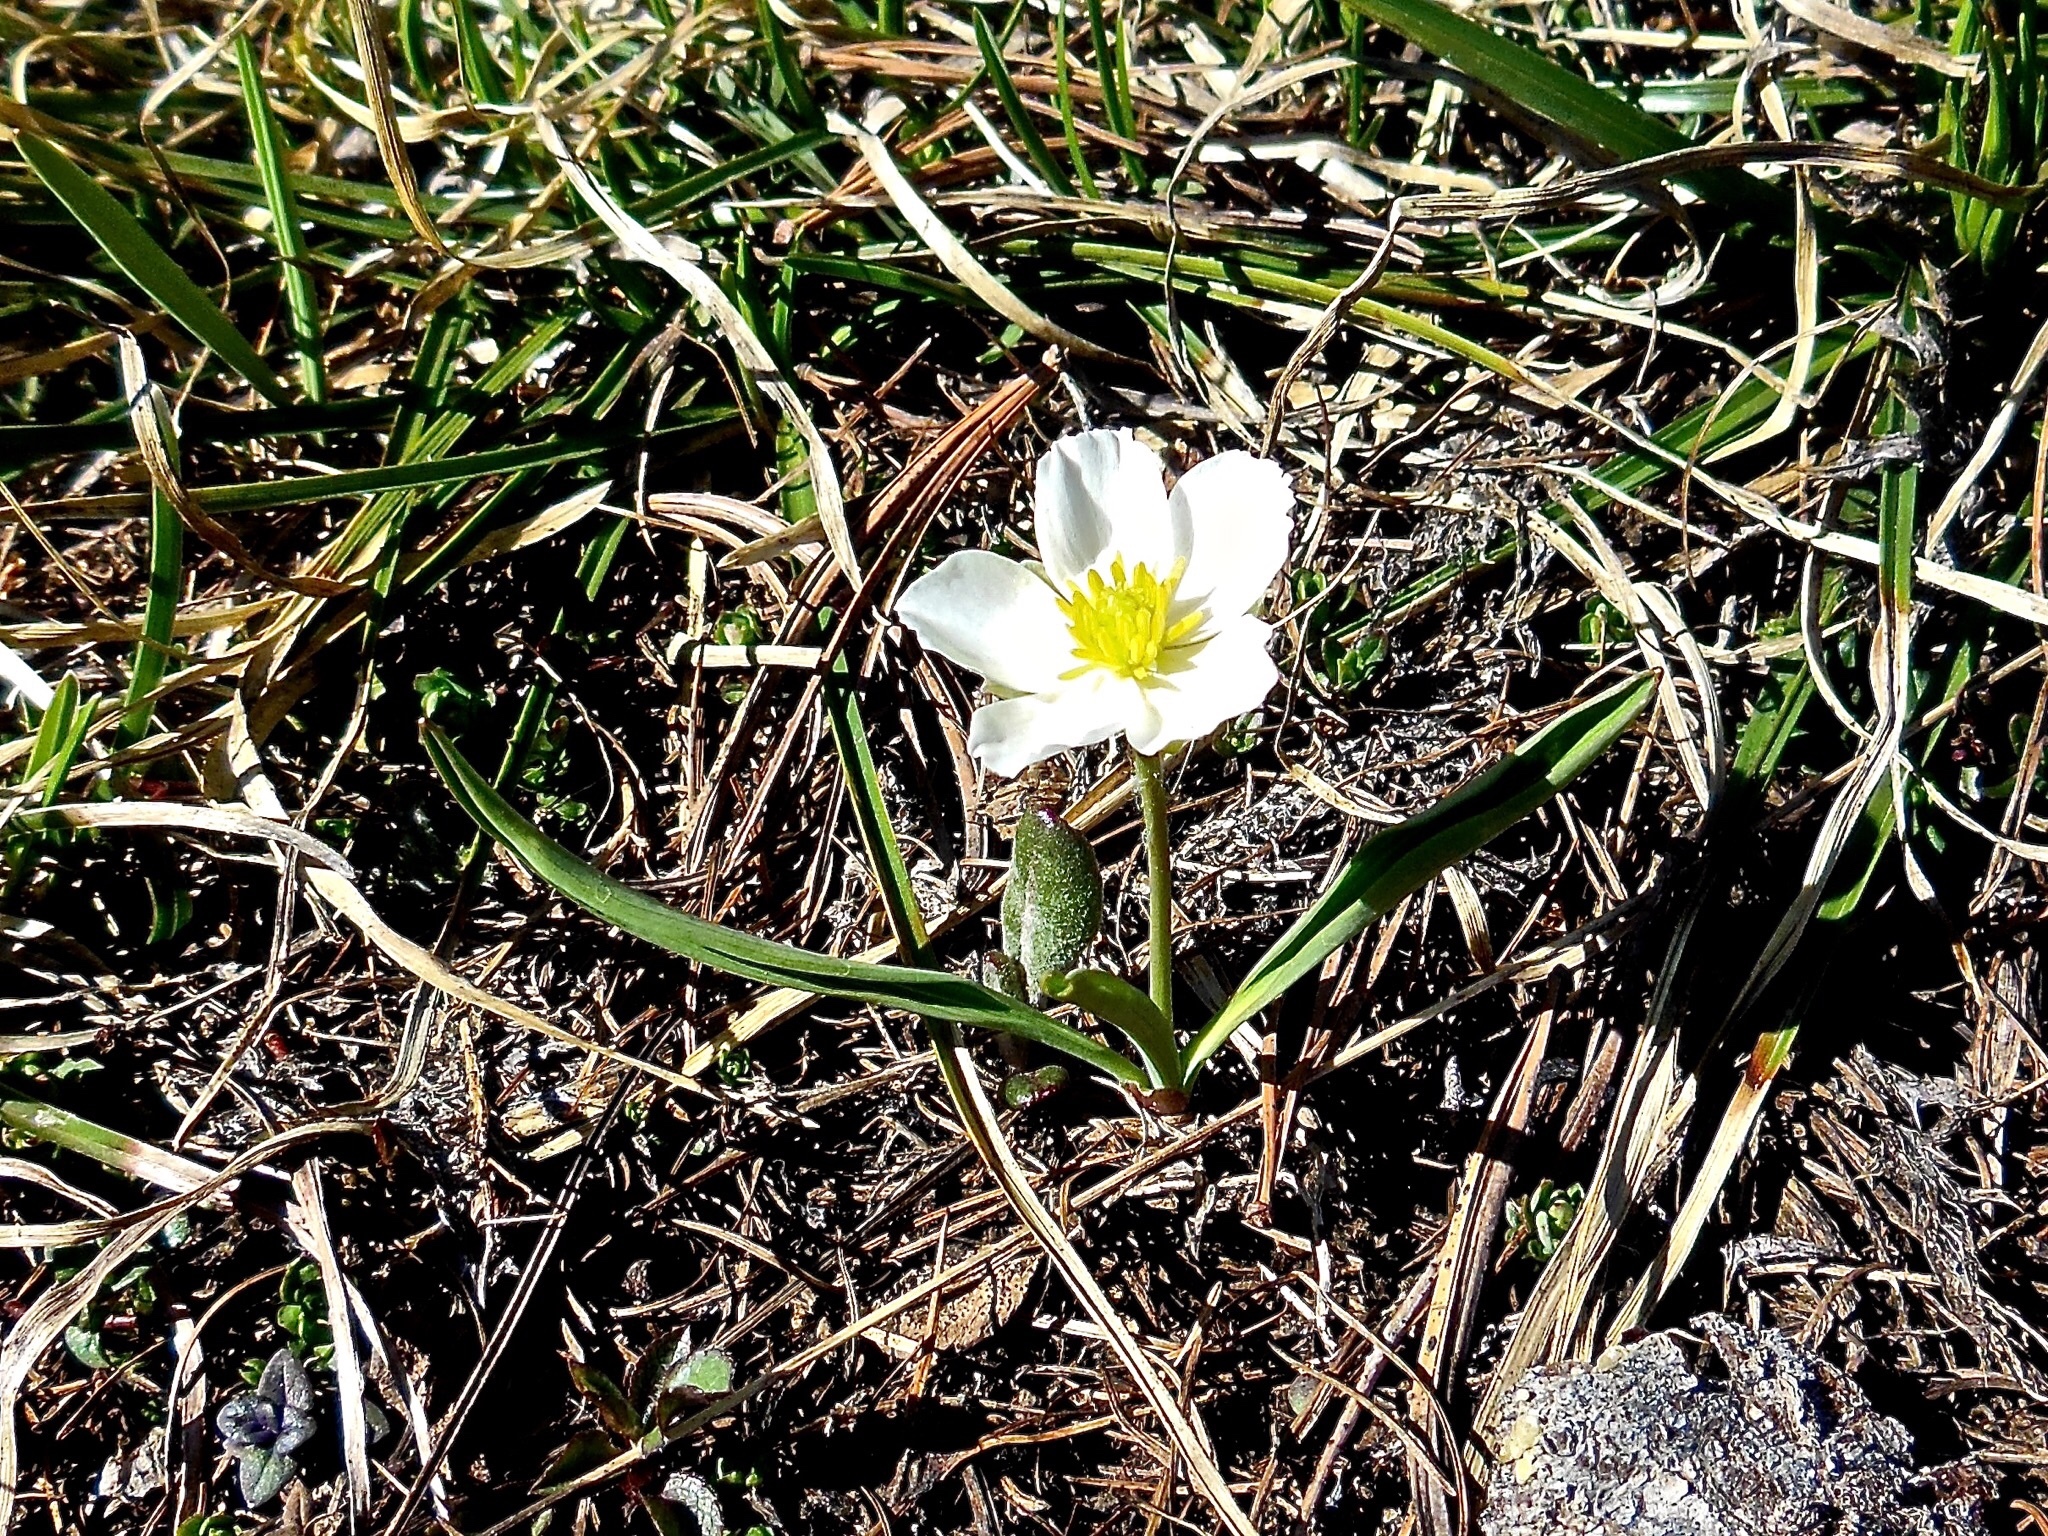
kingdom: Plantae
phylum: Tracheophyta
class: Magnoliopsida
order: Ranunculales
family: Ranunculaceae
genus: Ranunculus
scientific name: Ranunculus kuepferi
